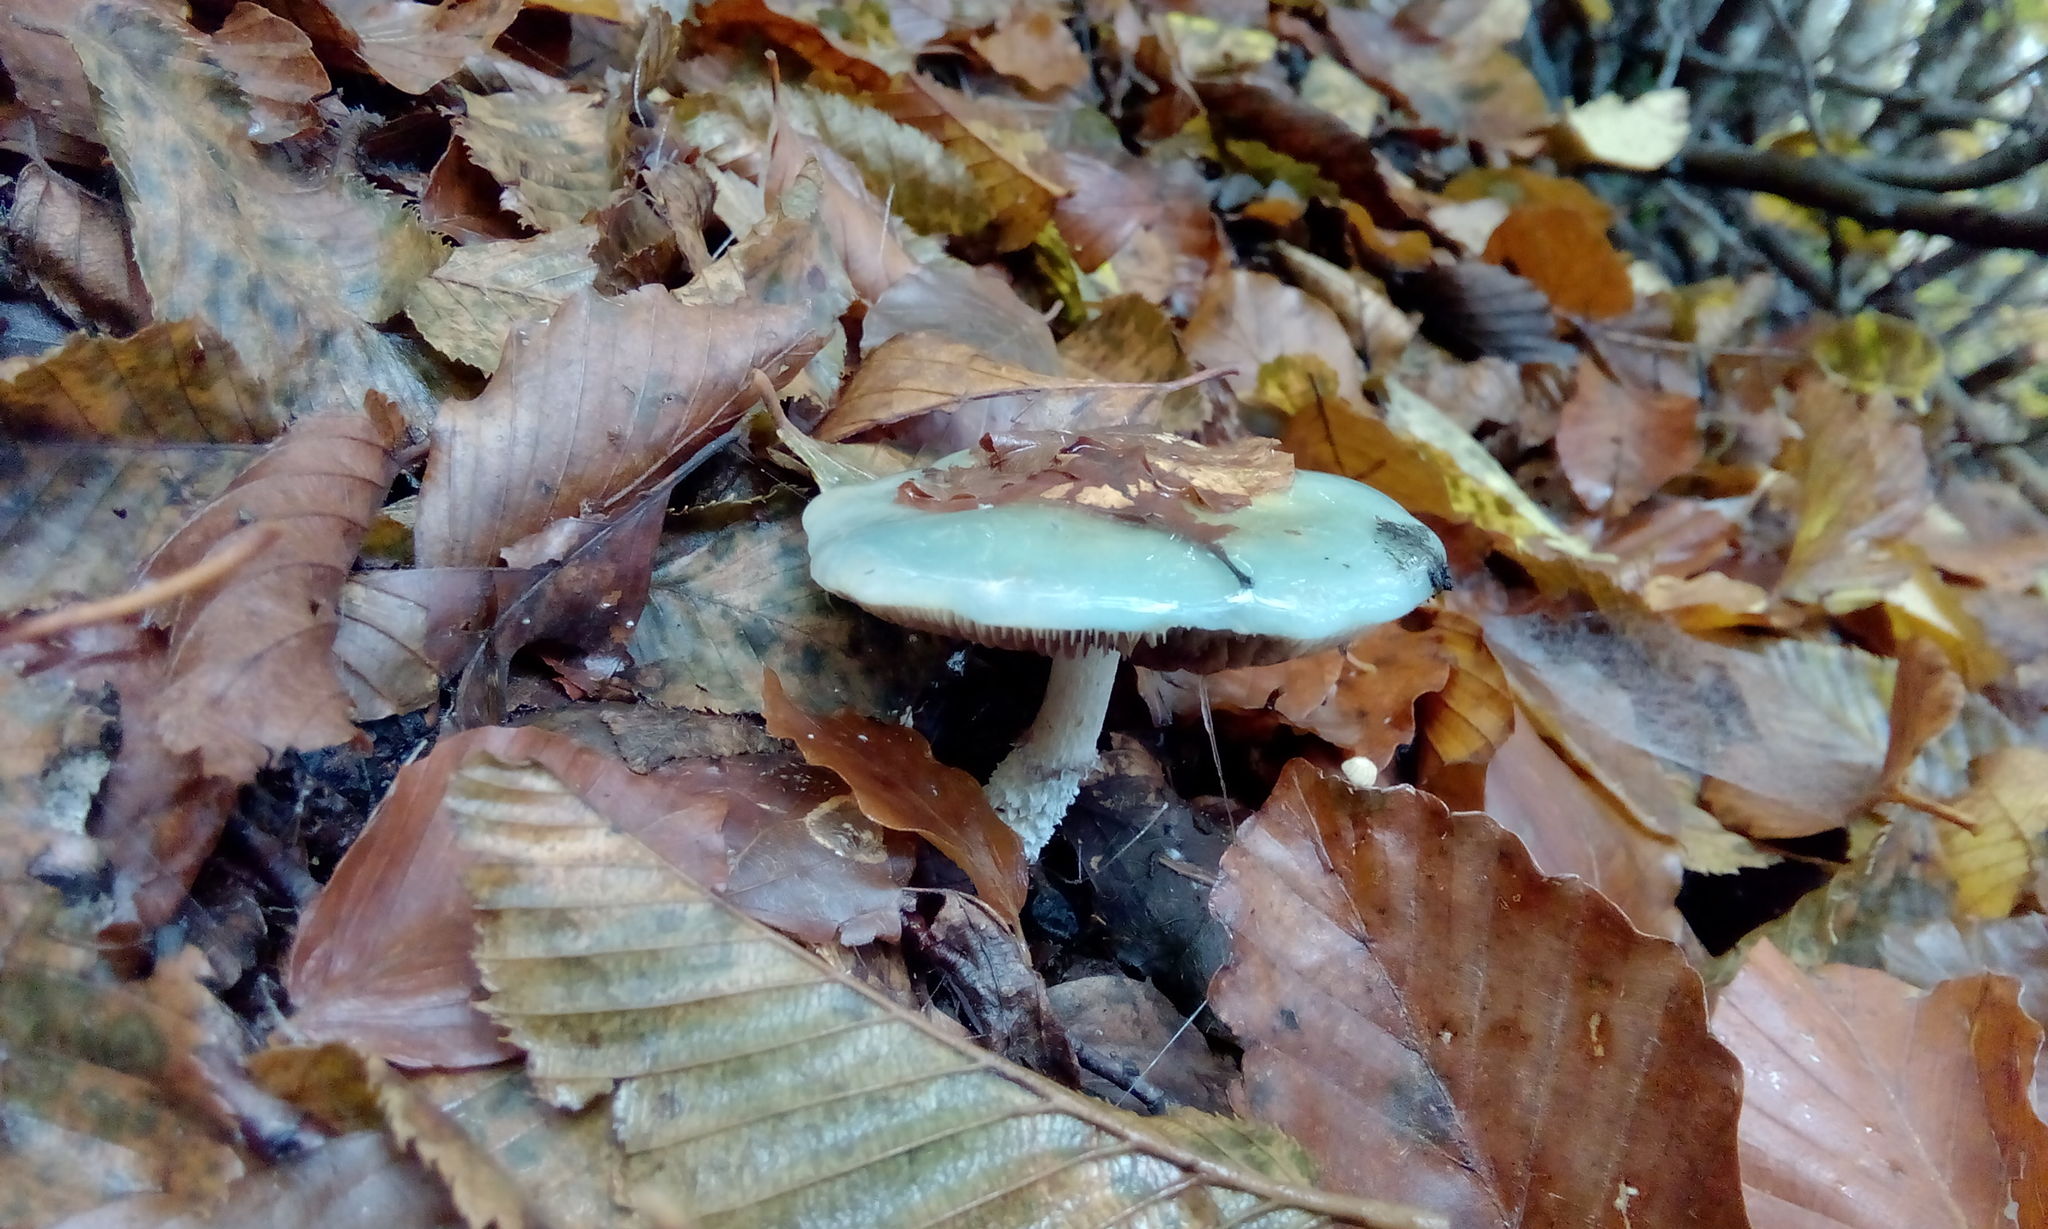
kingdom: Fungi
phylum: Basidiomycota
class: Agaricomycetes
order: Agaricales
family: Strophariaceae
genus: Stropharia
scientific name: Stropharia aeruginosa
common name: Verdigris roundhead
